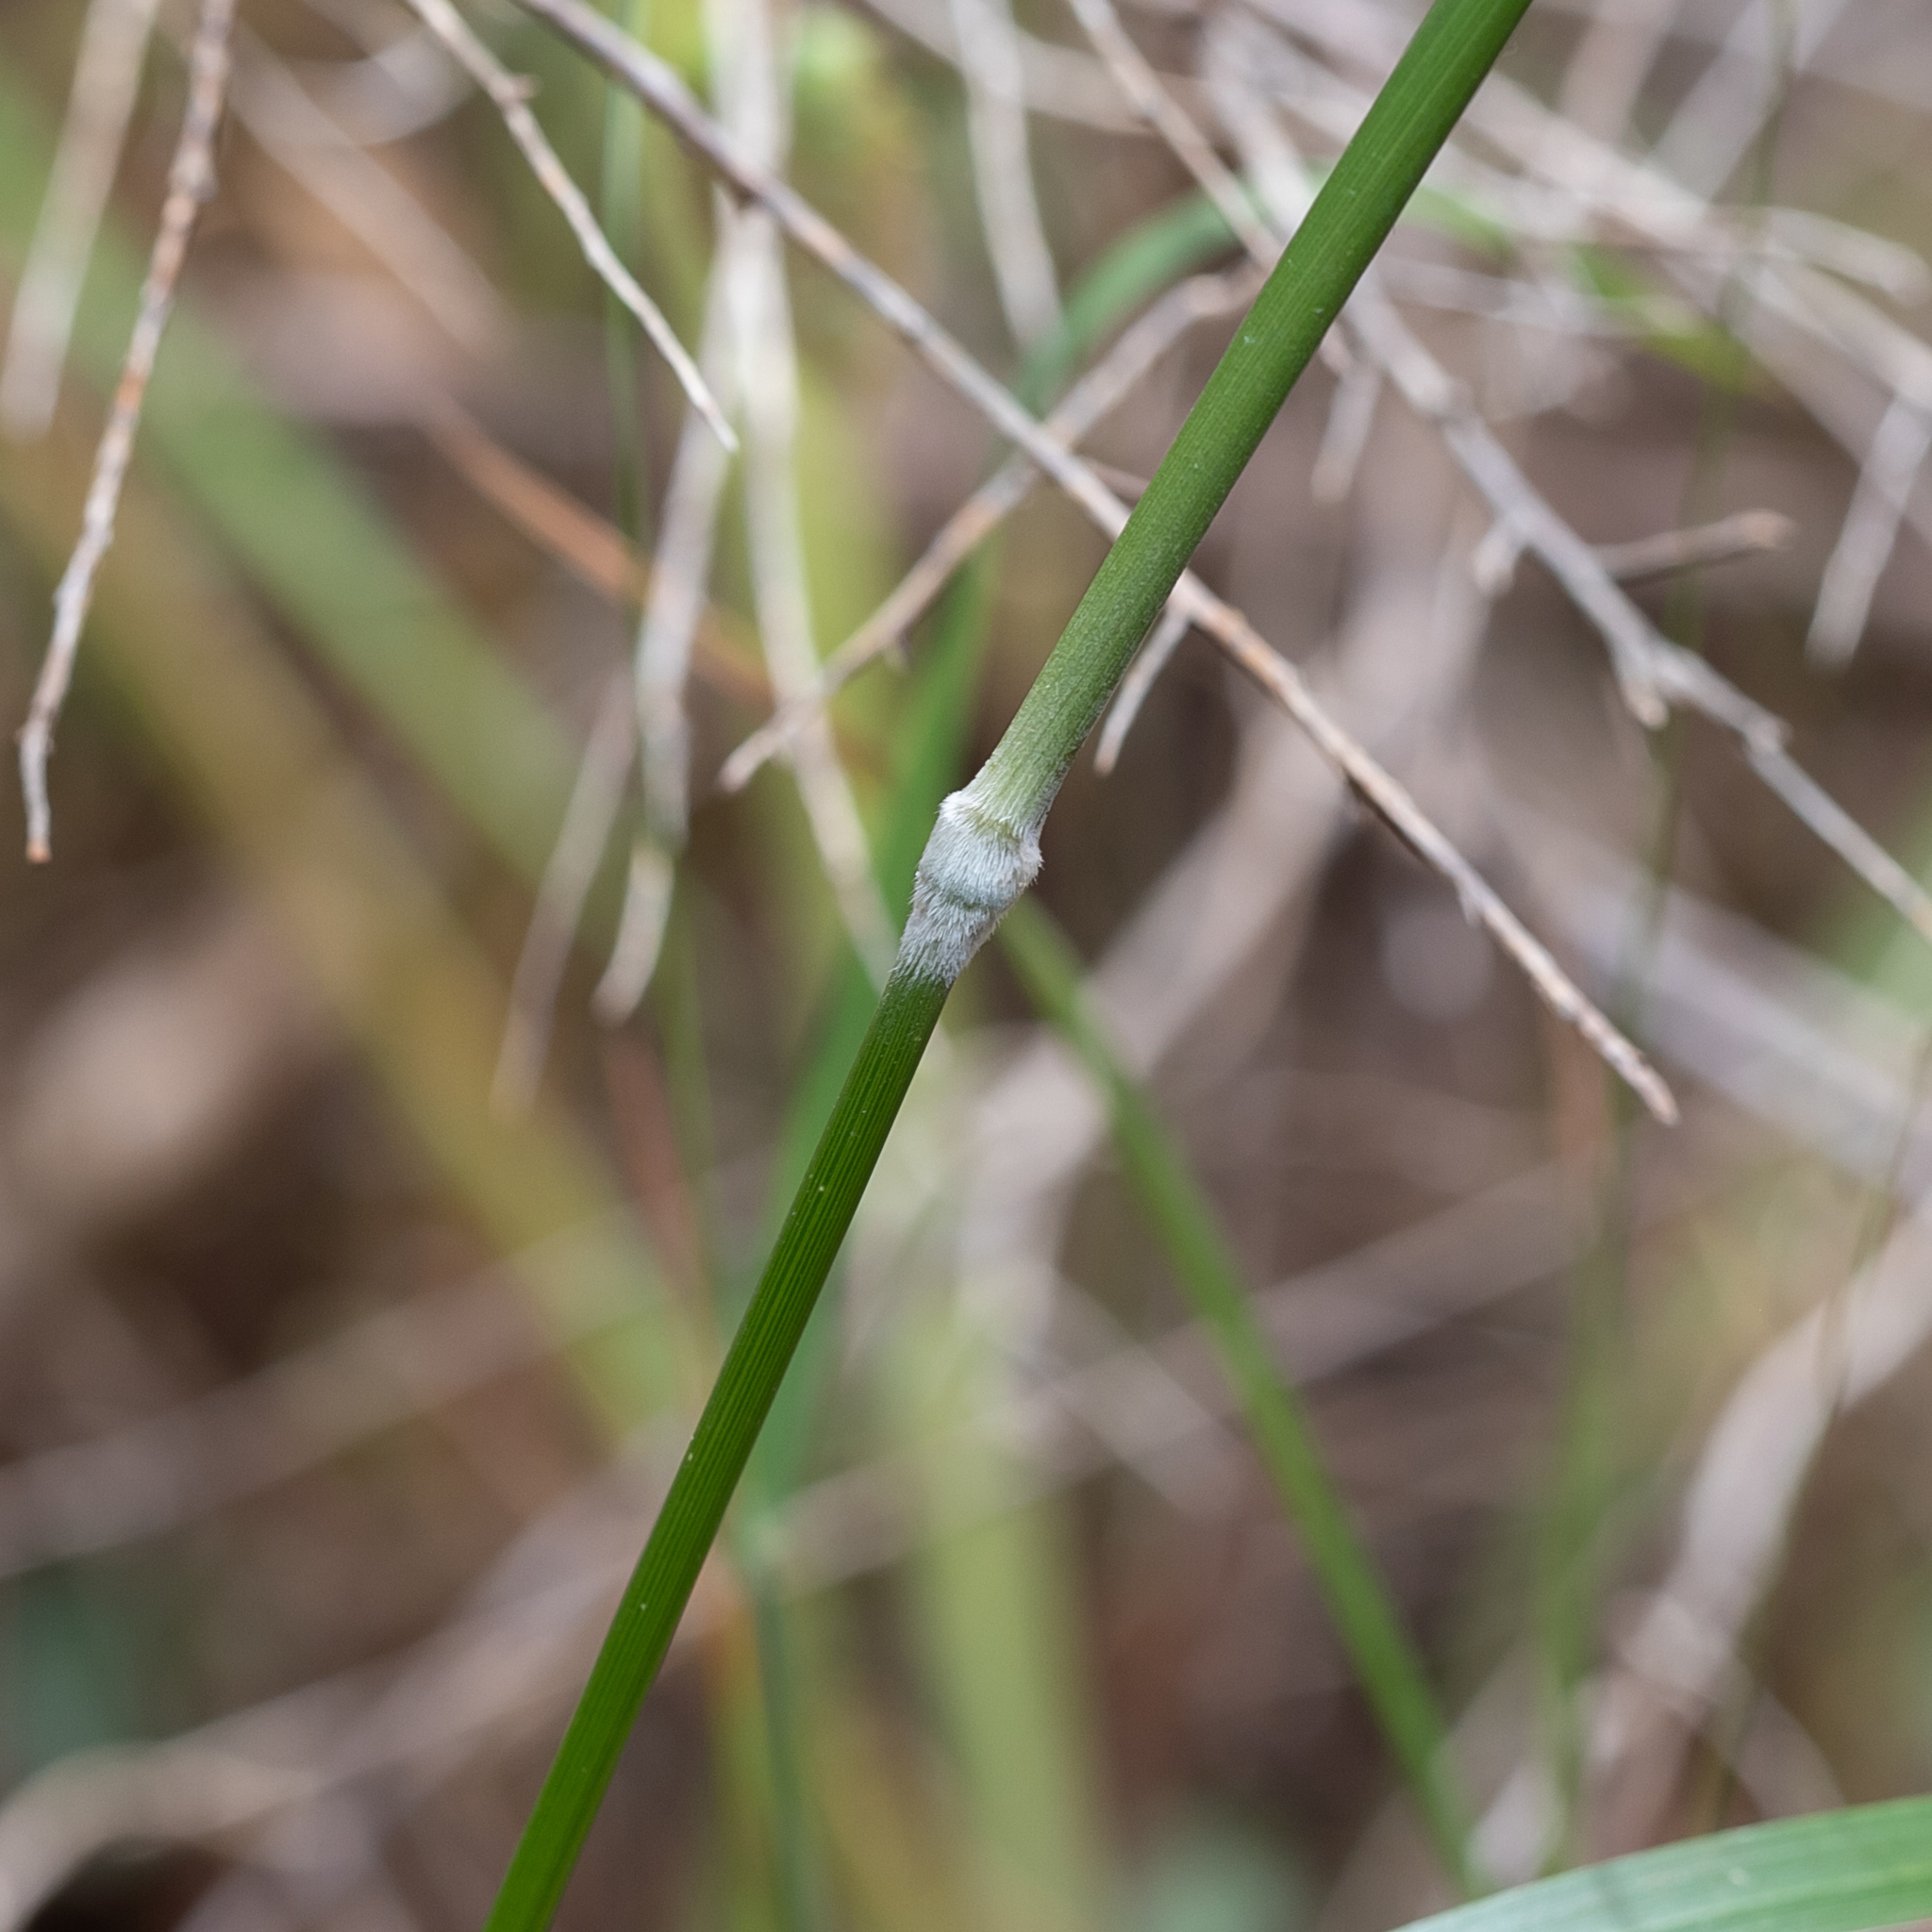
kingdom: Plantae
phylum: Tracheophyta
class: Liliopsida
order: Poales
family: Poaceae
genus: Austrostipa
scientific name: Austrostipa flavescens
